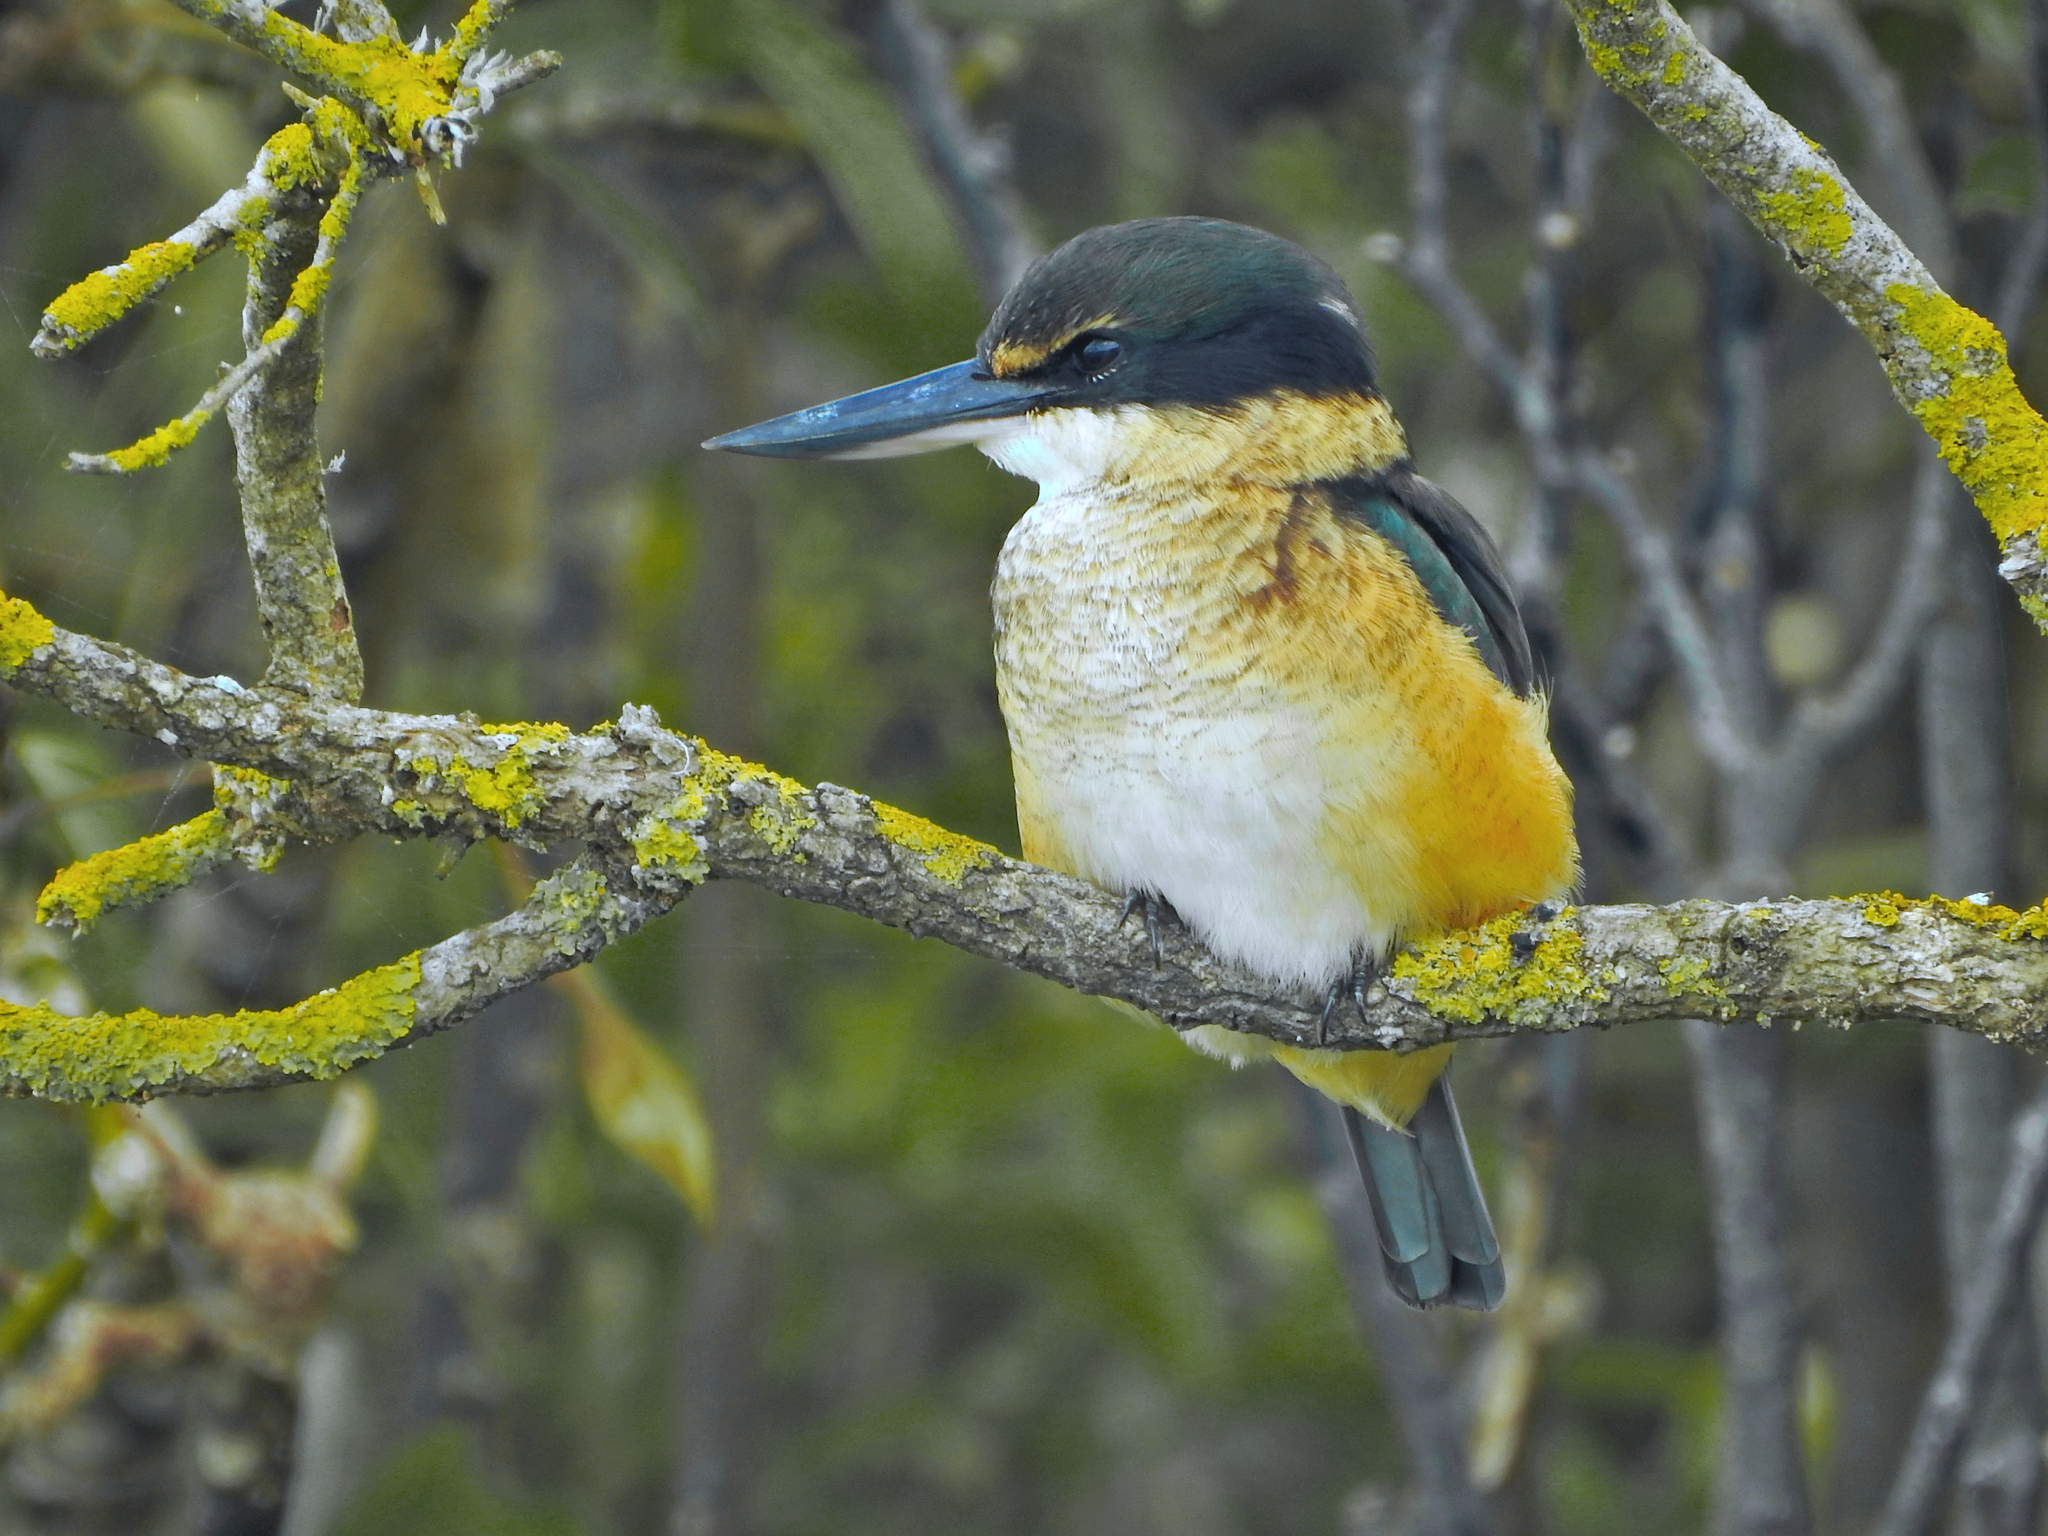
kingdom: Animalia
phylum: Chordata
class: Aves
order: Coraciiformes
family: Alcedinidae
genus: Todiramphus
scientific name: Todiramphus sanctus
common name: Sacred kingfisher
